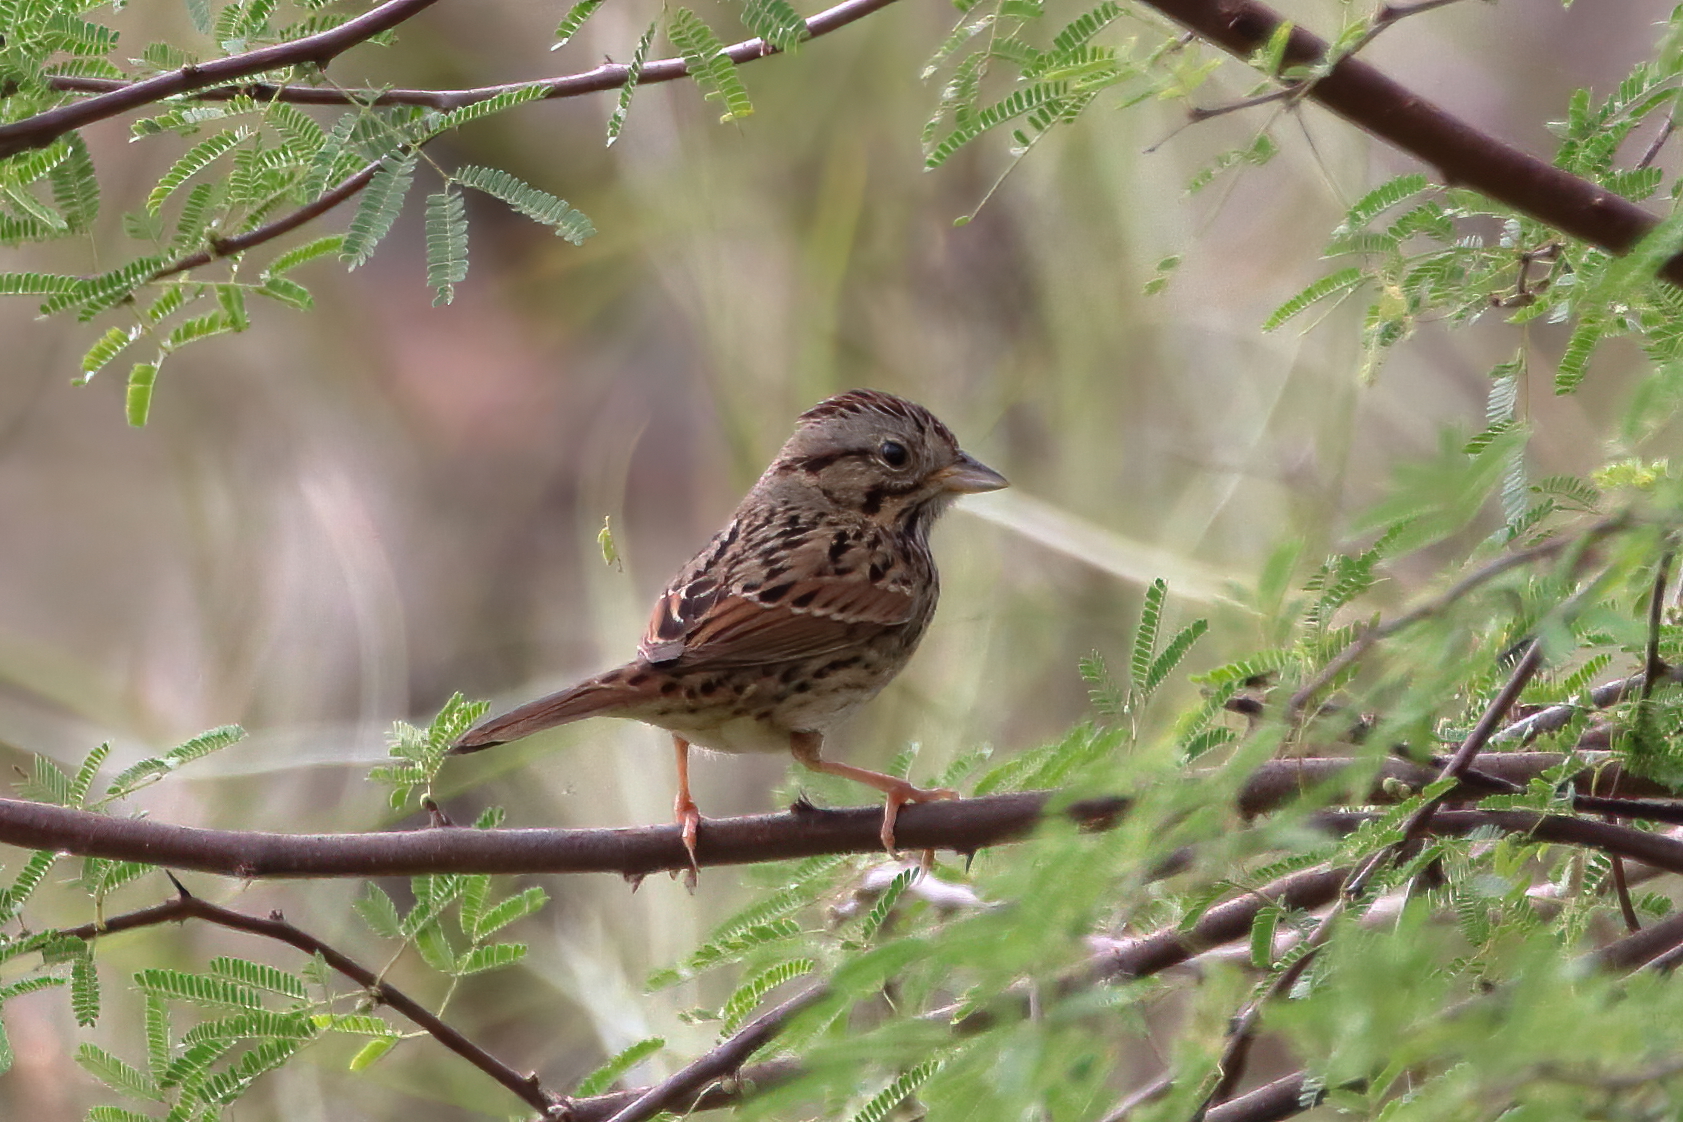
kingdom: Animalia
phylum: Chordata
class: Aves
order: Passeriformes
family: Passerellidae
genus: Melospiza
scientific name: Melospiza lincolnii
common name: Lincoln's sparrow
